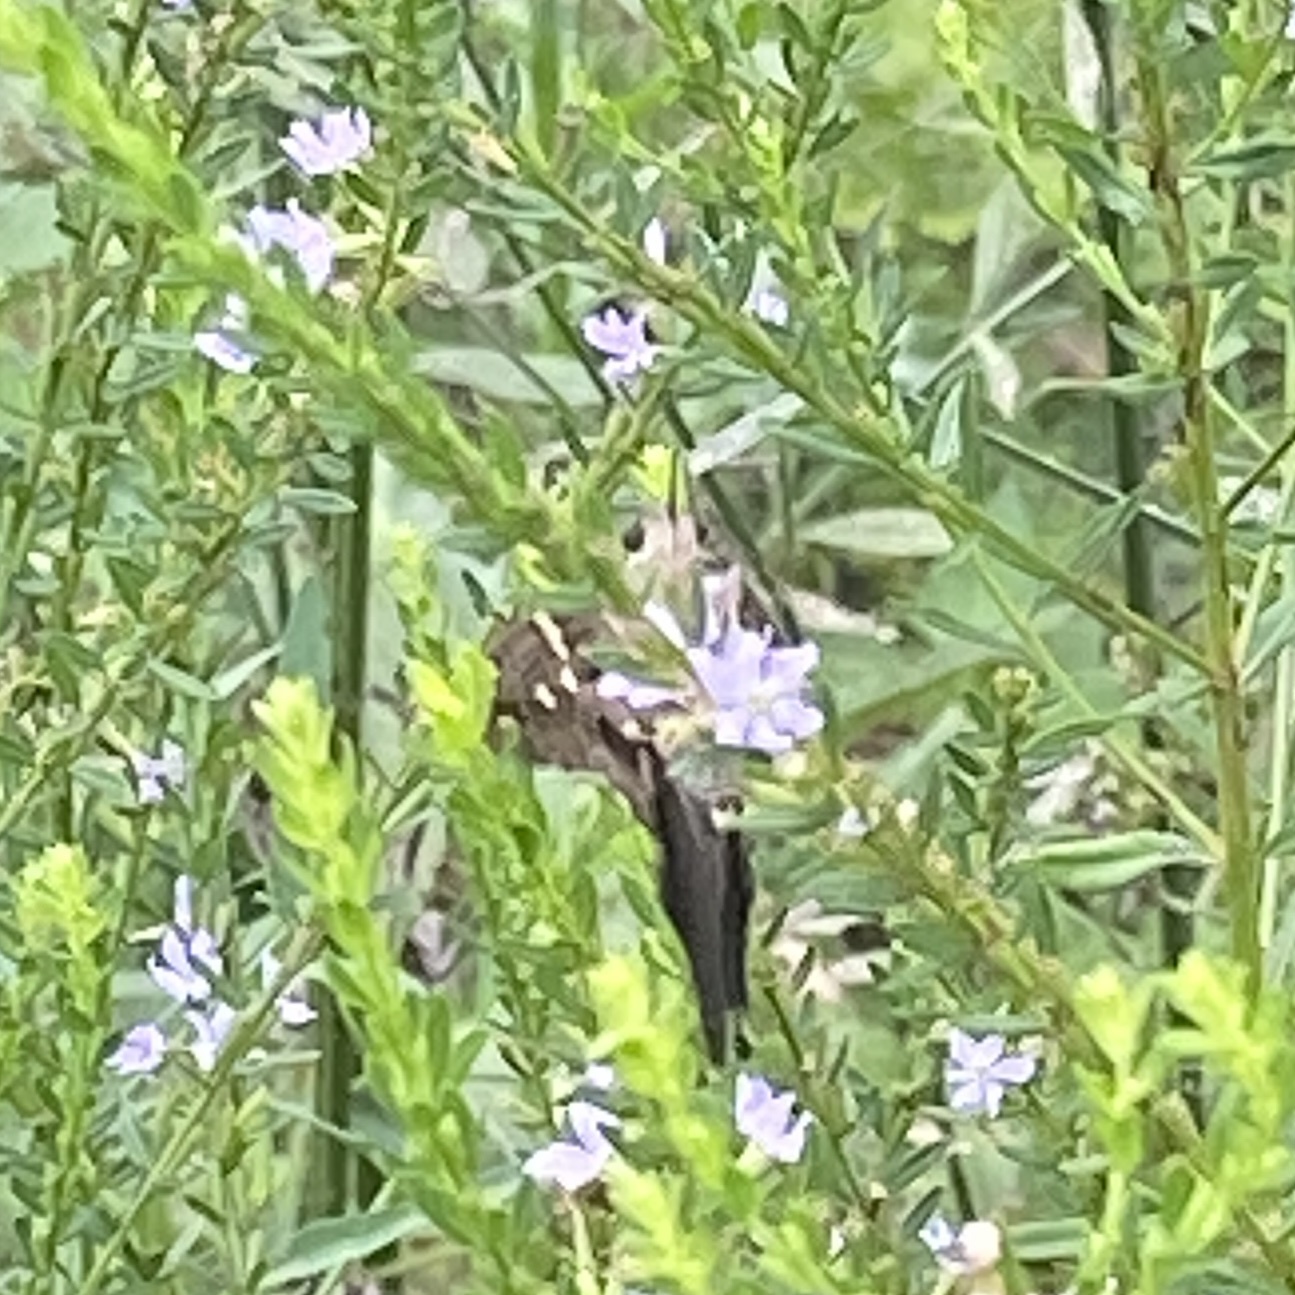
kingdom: Animalia
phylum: Arthropoda
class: Insecta
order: Lepidoptera
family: Hesperiidae
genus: Urbanus
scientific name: Urbanus proteus
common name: Long-tailed skipper
